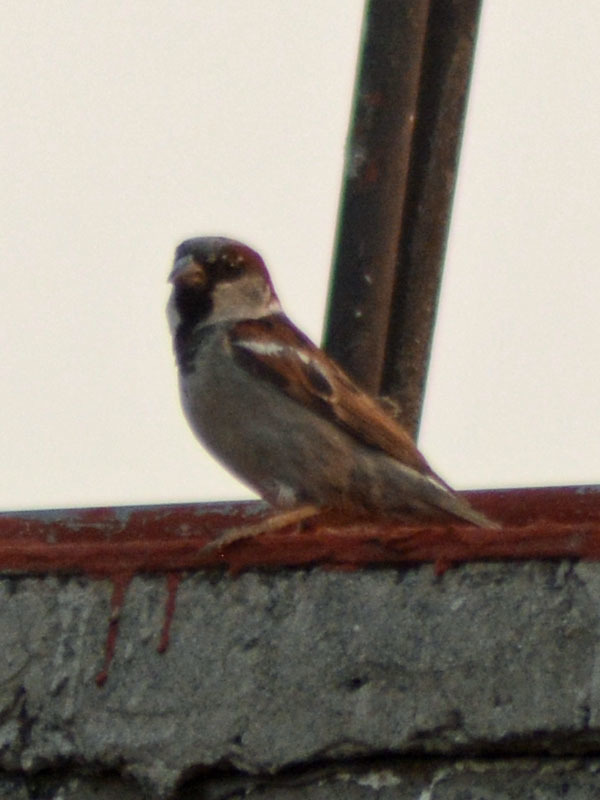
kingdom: Animalia
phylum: Chordata
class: Aves
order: Passeriformes
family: Passeridae
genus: Passer
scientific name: Passer domesticus
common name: House sparrow
